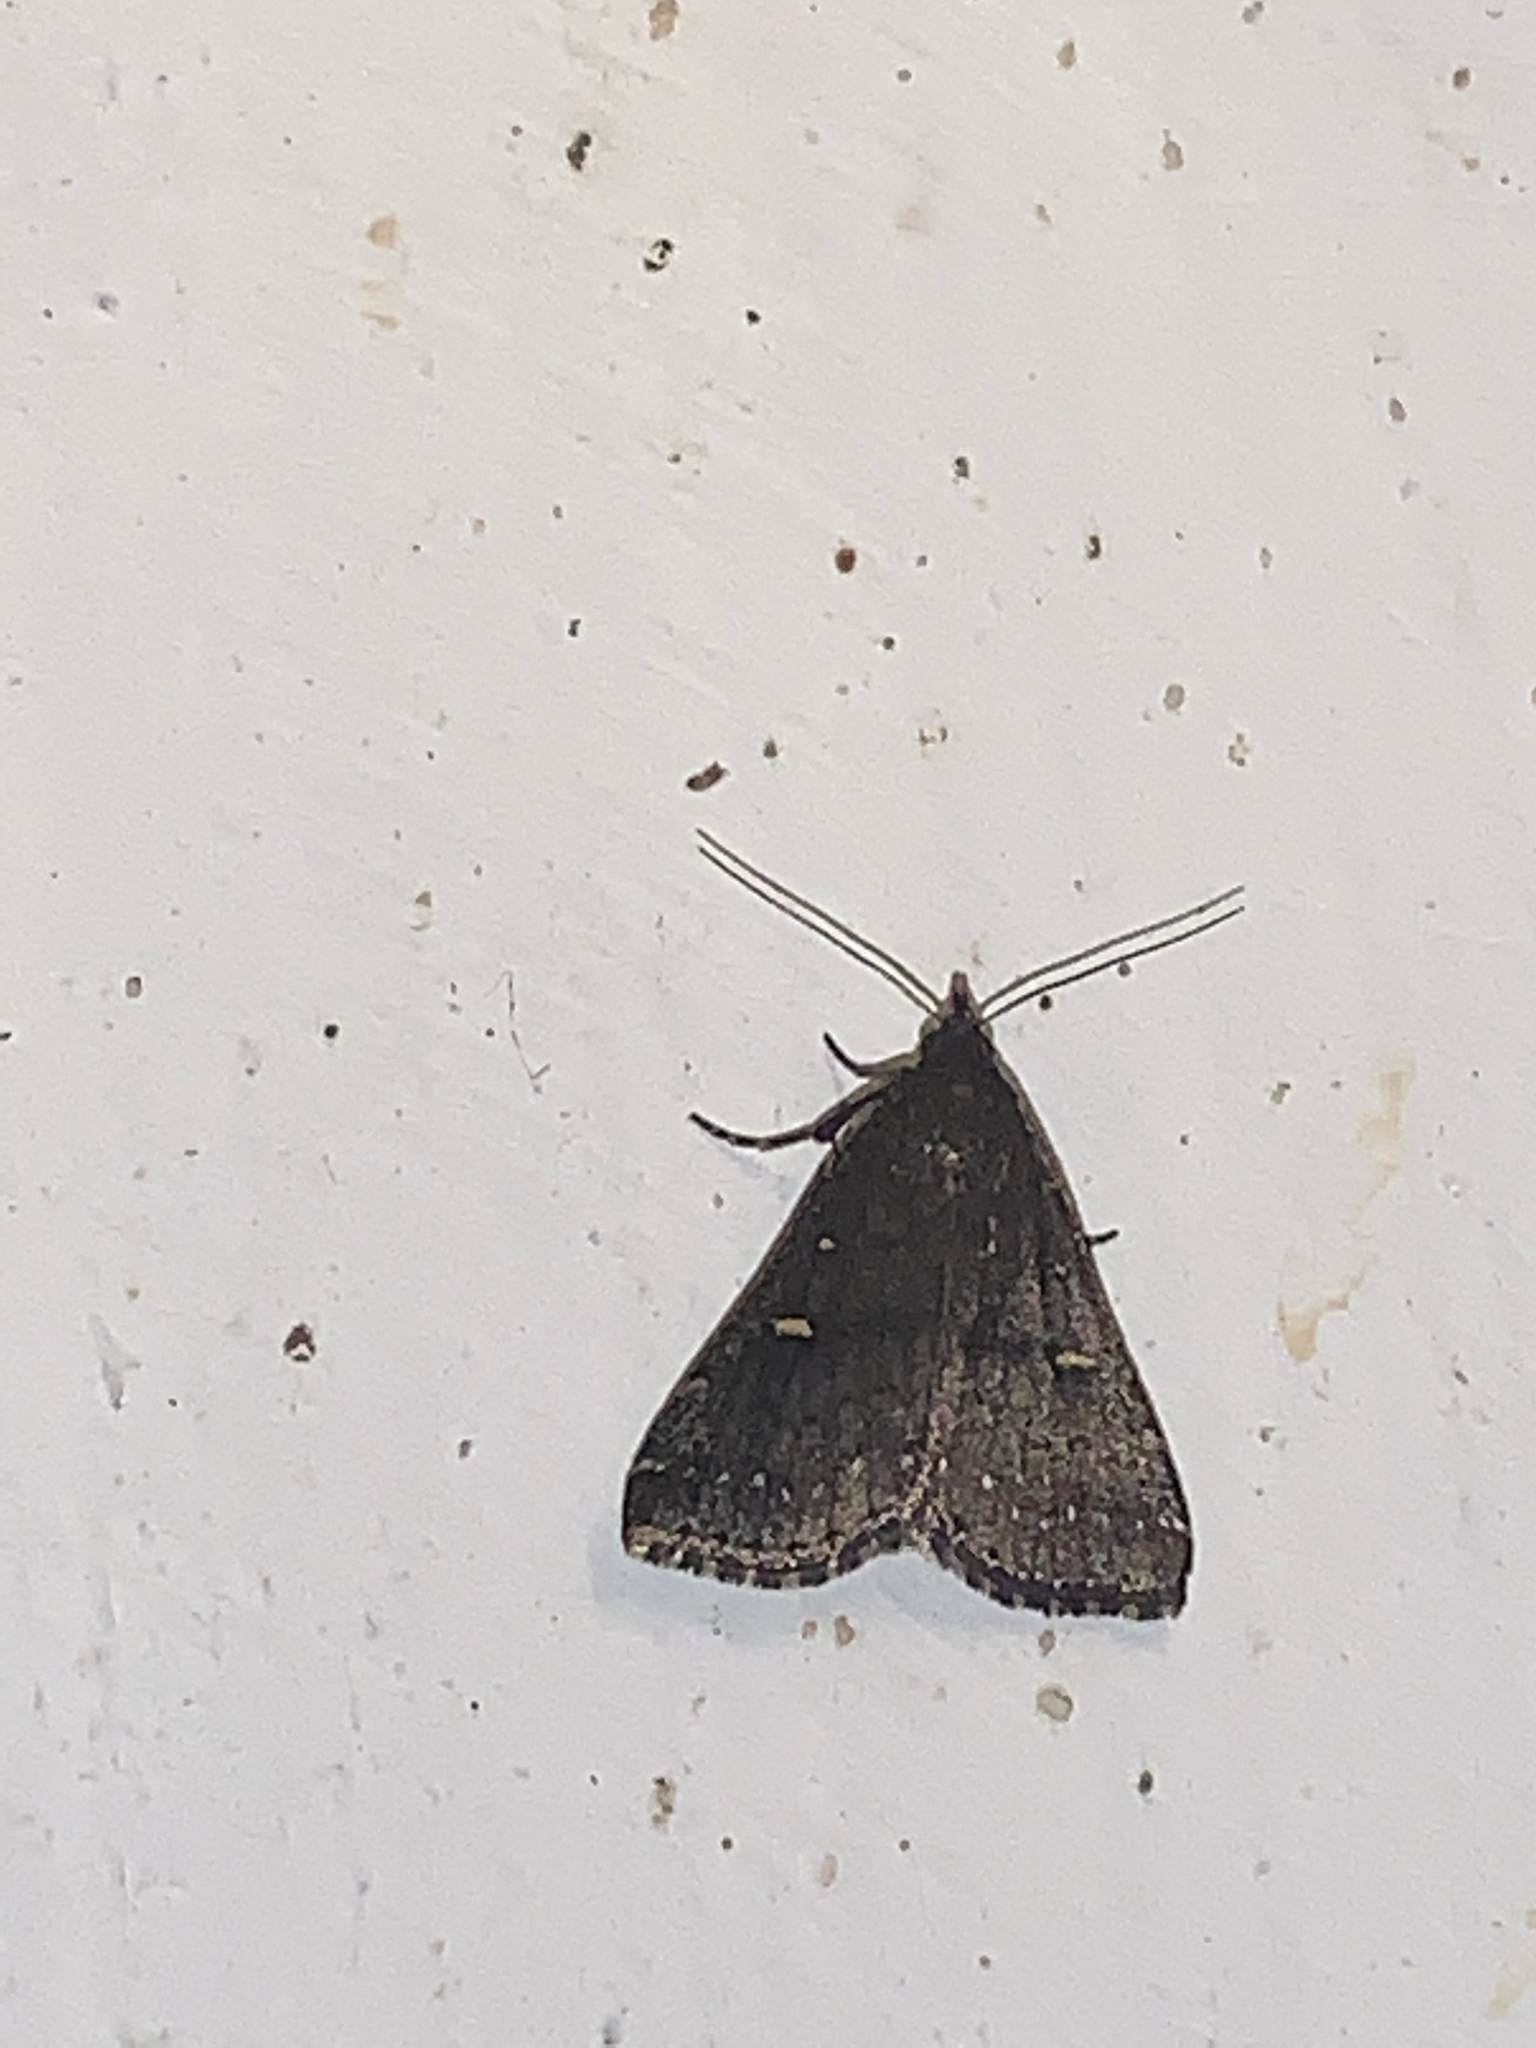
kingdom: Animalia
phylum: Arthropoda
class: Insecta
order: Lepidoptera
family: Erebidae
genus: Tetanolita
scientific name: Tetanolita mynesalis
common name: Smoky tetanolita moth
